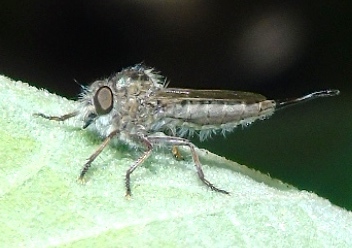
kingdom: Animalia
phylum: Arthropoda
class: Insecta
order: Diptera
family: Asilidae
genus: Efferia
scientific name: Efferia
